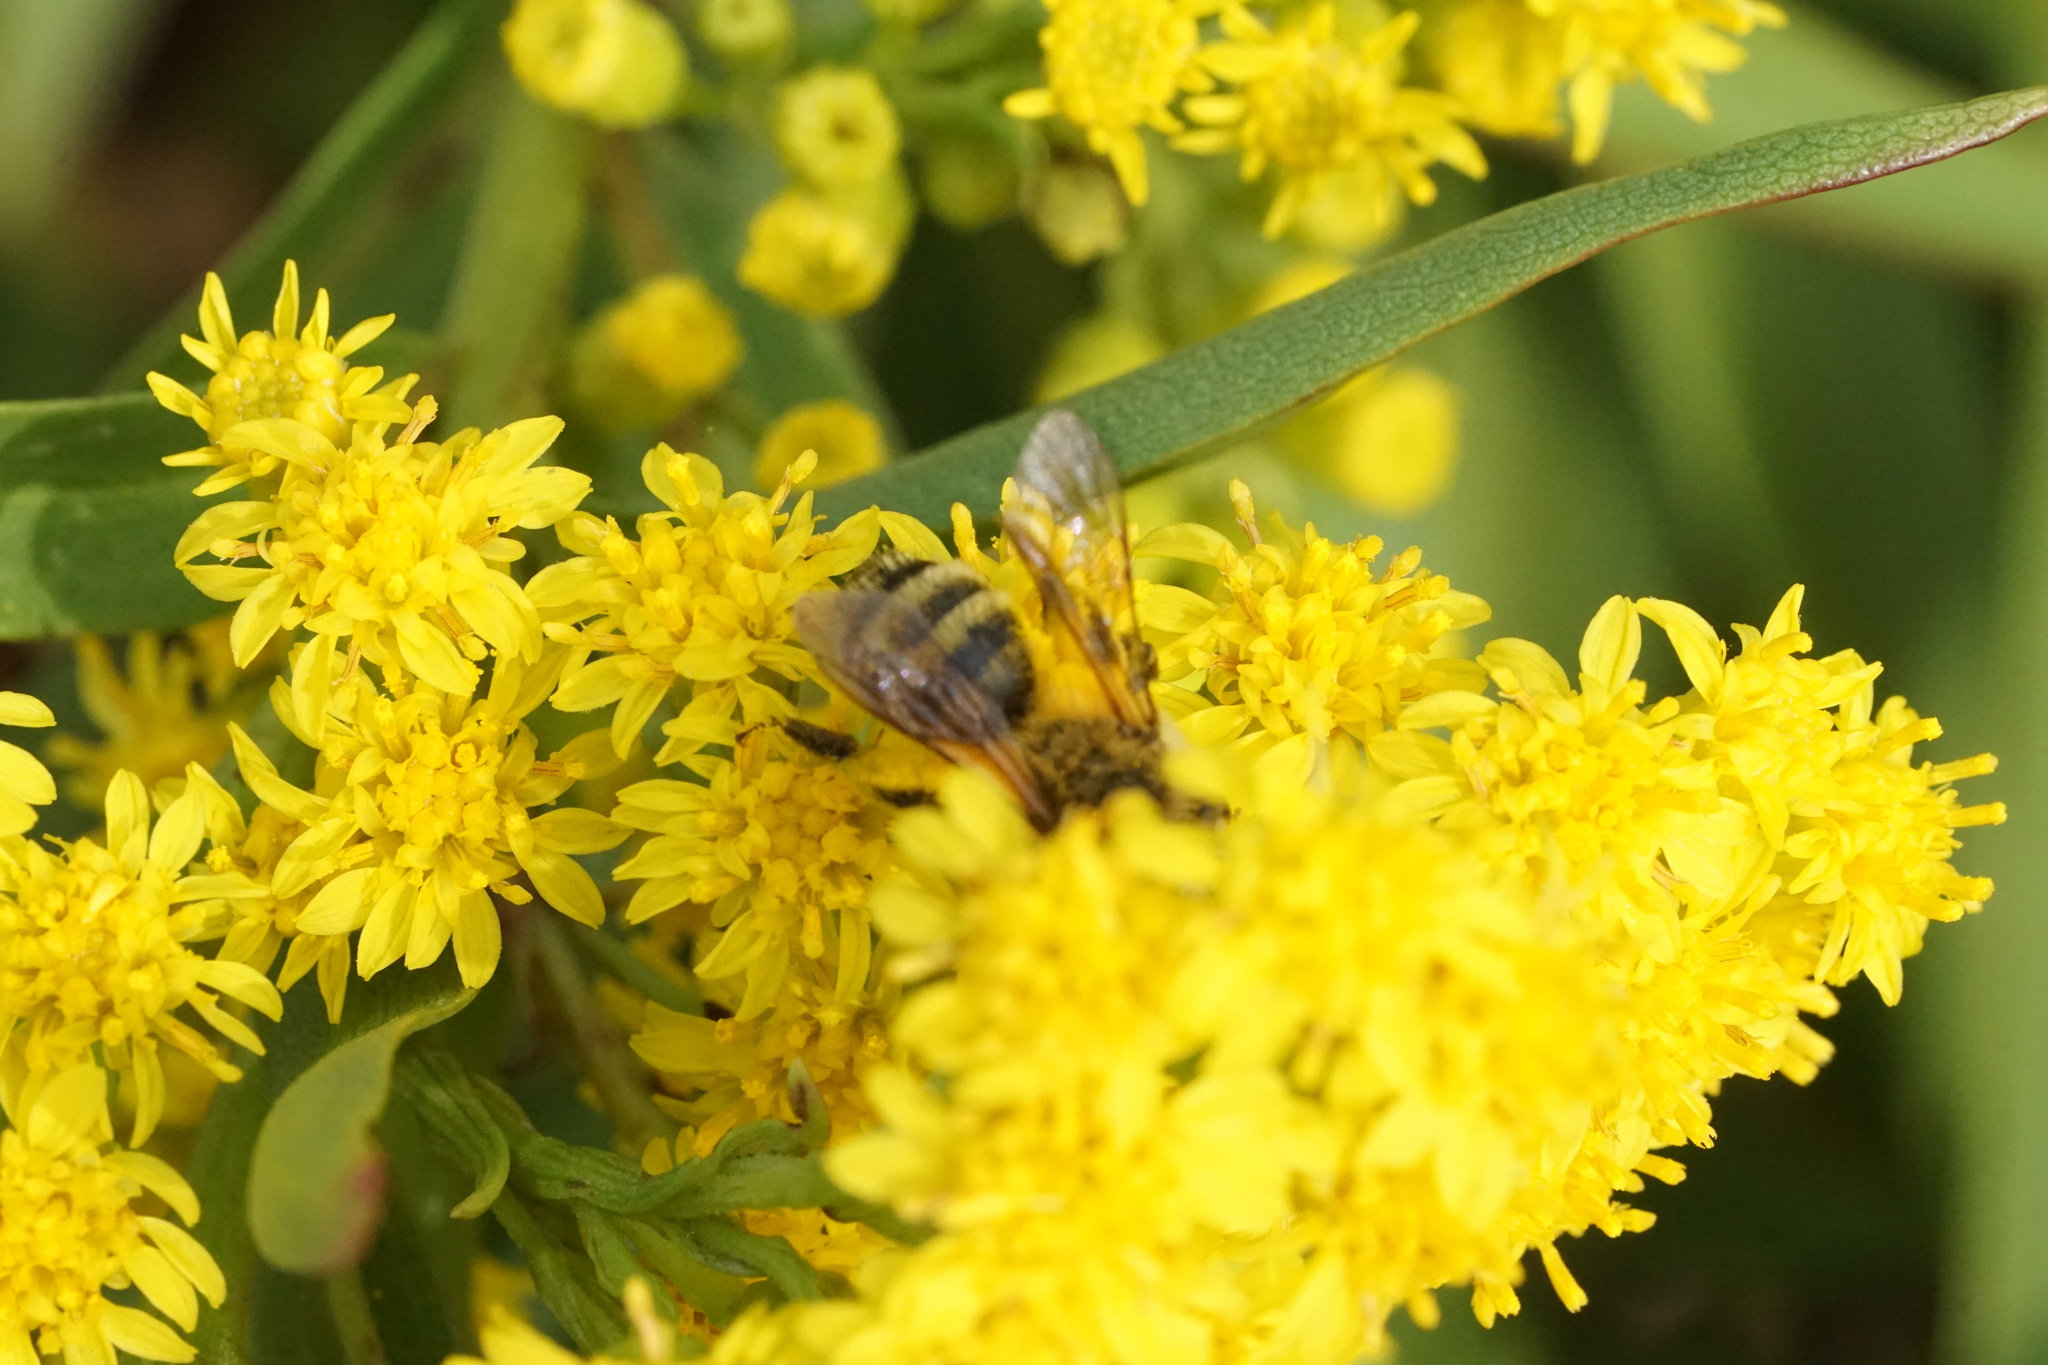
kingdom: Animalia
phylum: Arthropoda
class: Insecta
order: Hymenoptera
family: Andrenidae
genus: Andrena
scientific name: Andrena hirticincta
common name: Hairy-banded mining bee
